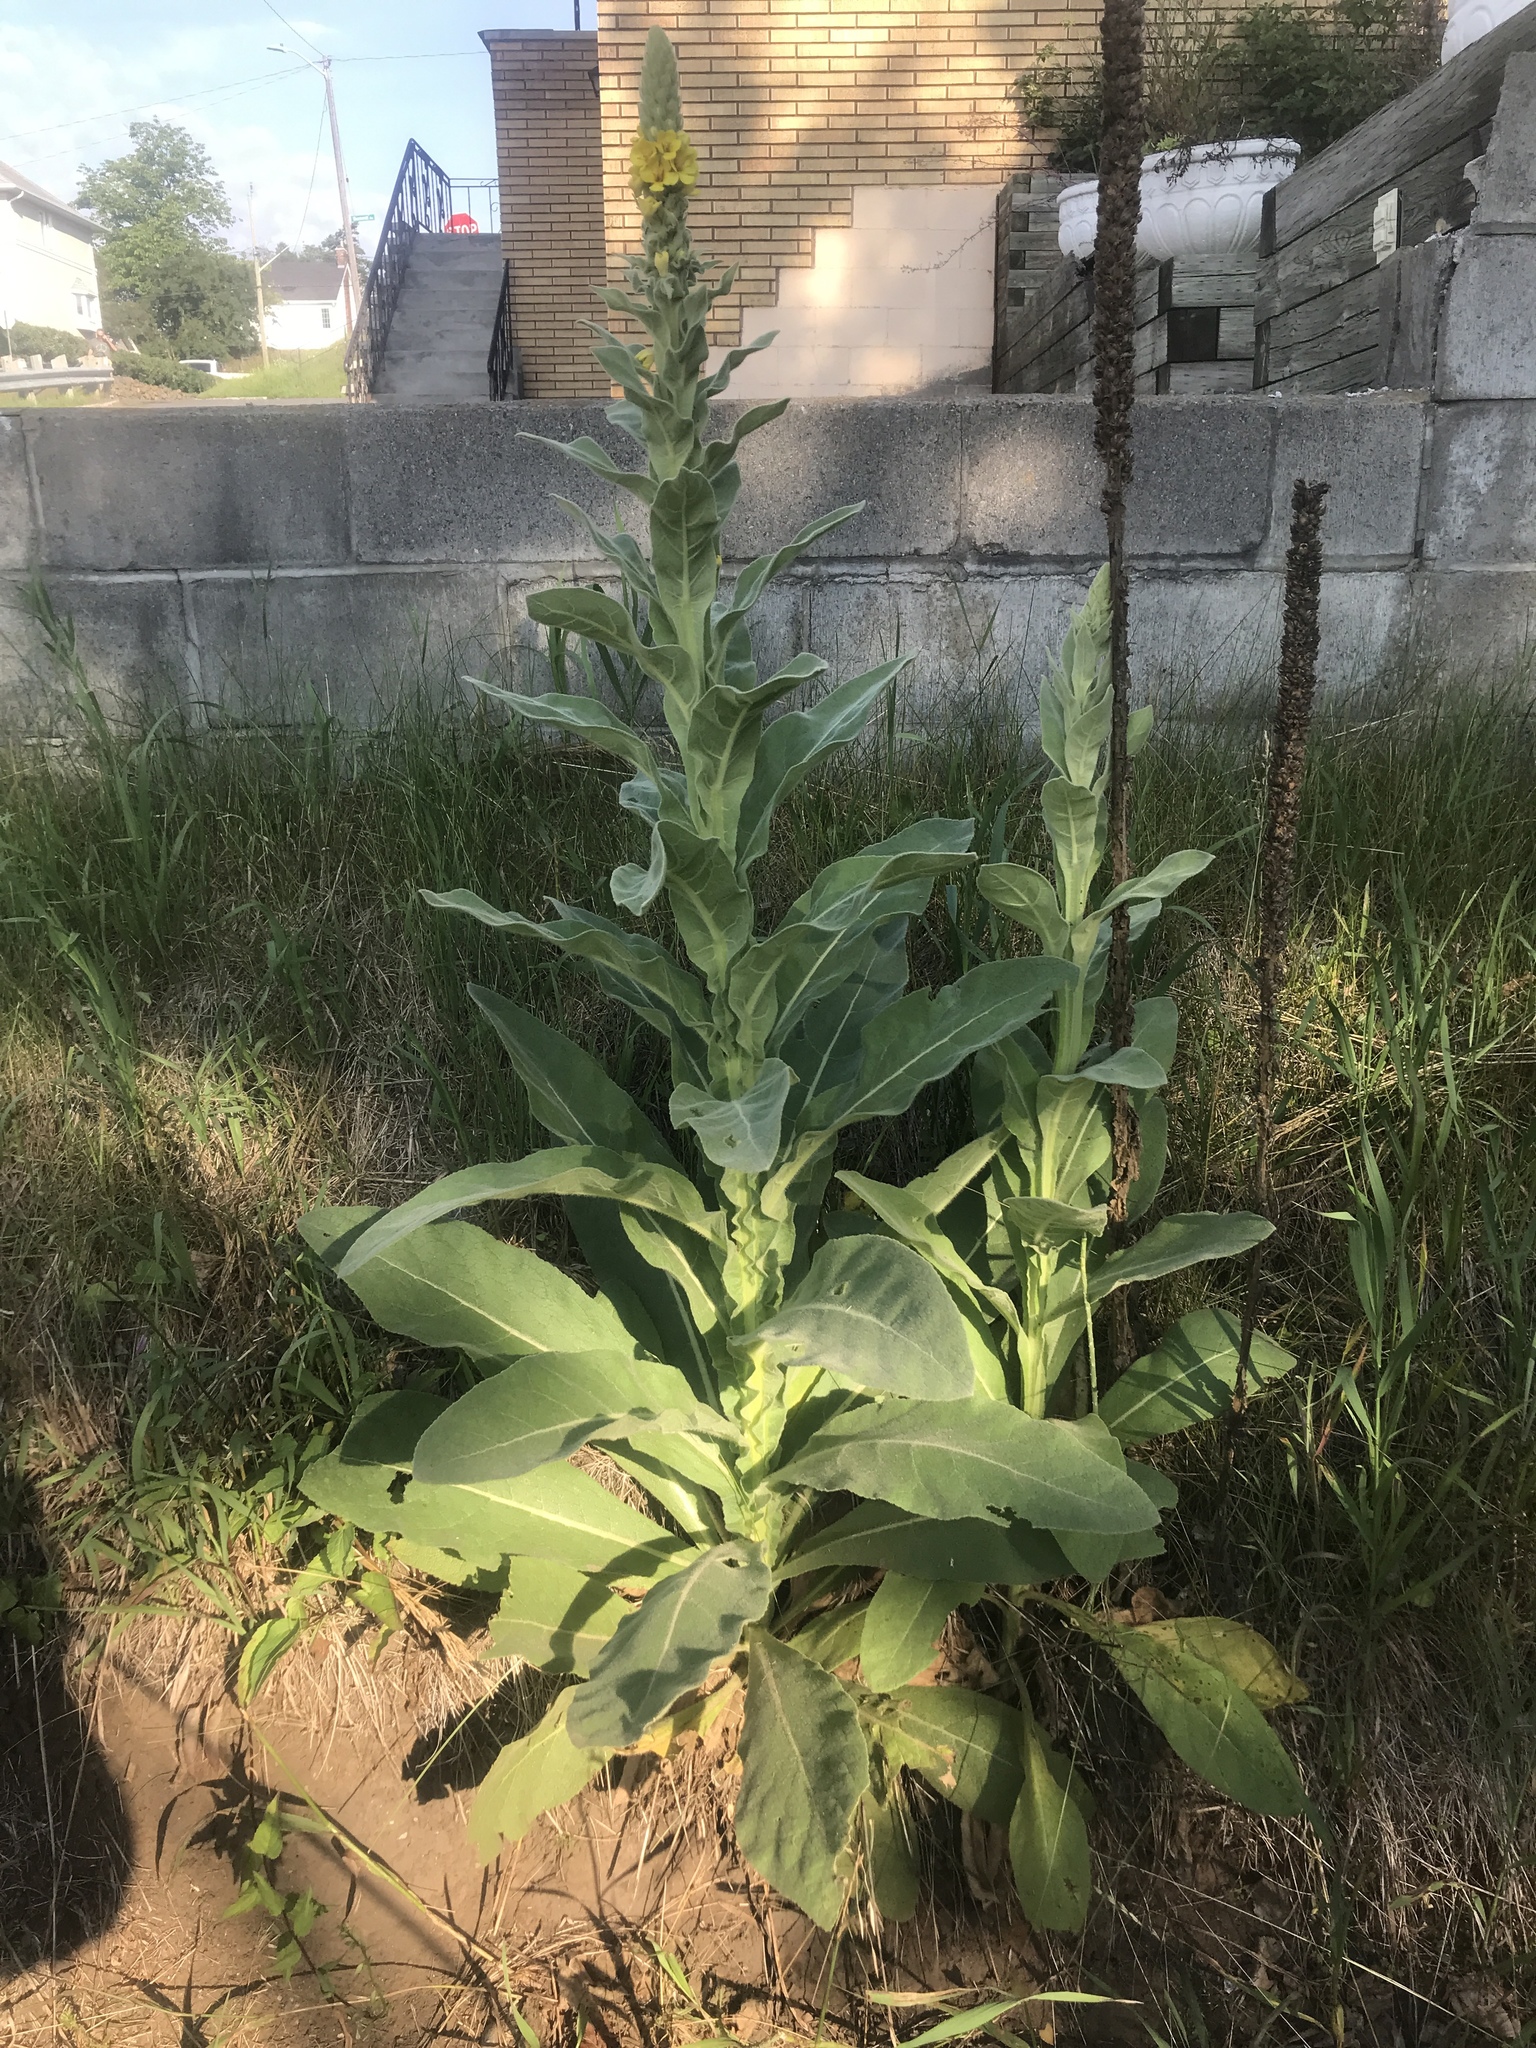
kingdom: Plantae
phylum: Tracheophyta
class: Magnoliopsida
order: Lamiales
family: Scrophulariaceae
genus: Verbascum
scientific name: Verbascum thapsus
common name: Common mullein
